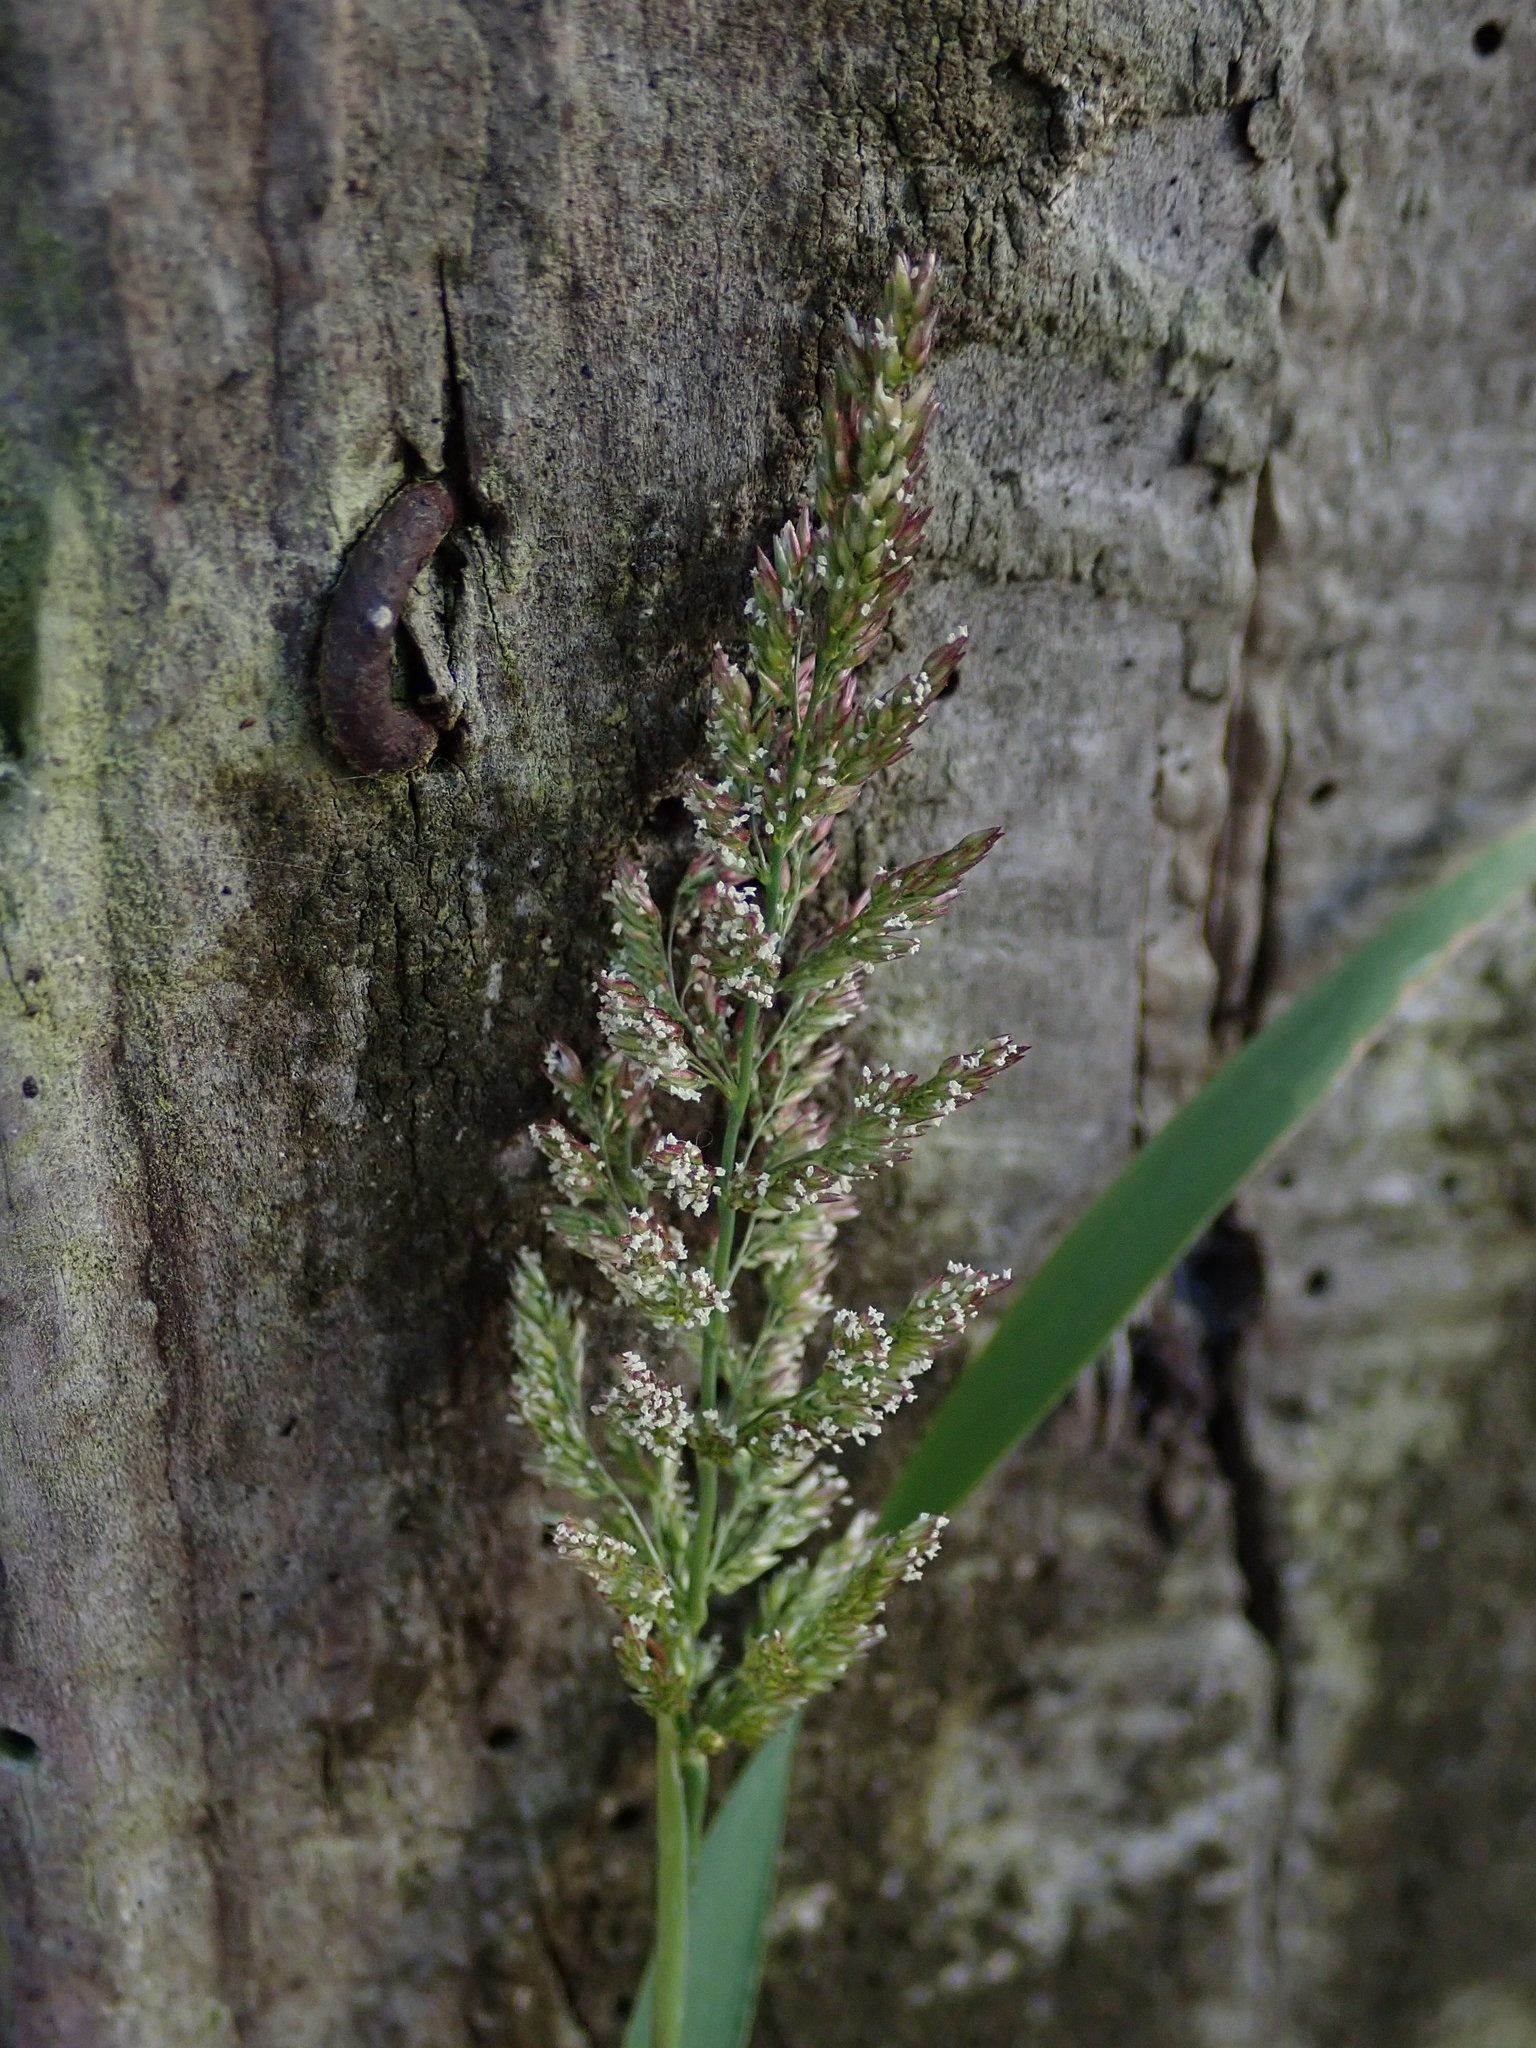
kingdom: Plantae
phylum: Tracheophyta
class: Liliopsida
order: Poales
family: Poaceae
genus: Polypogon
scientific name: Polypogon viridis
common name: Water bent
